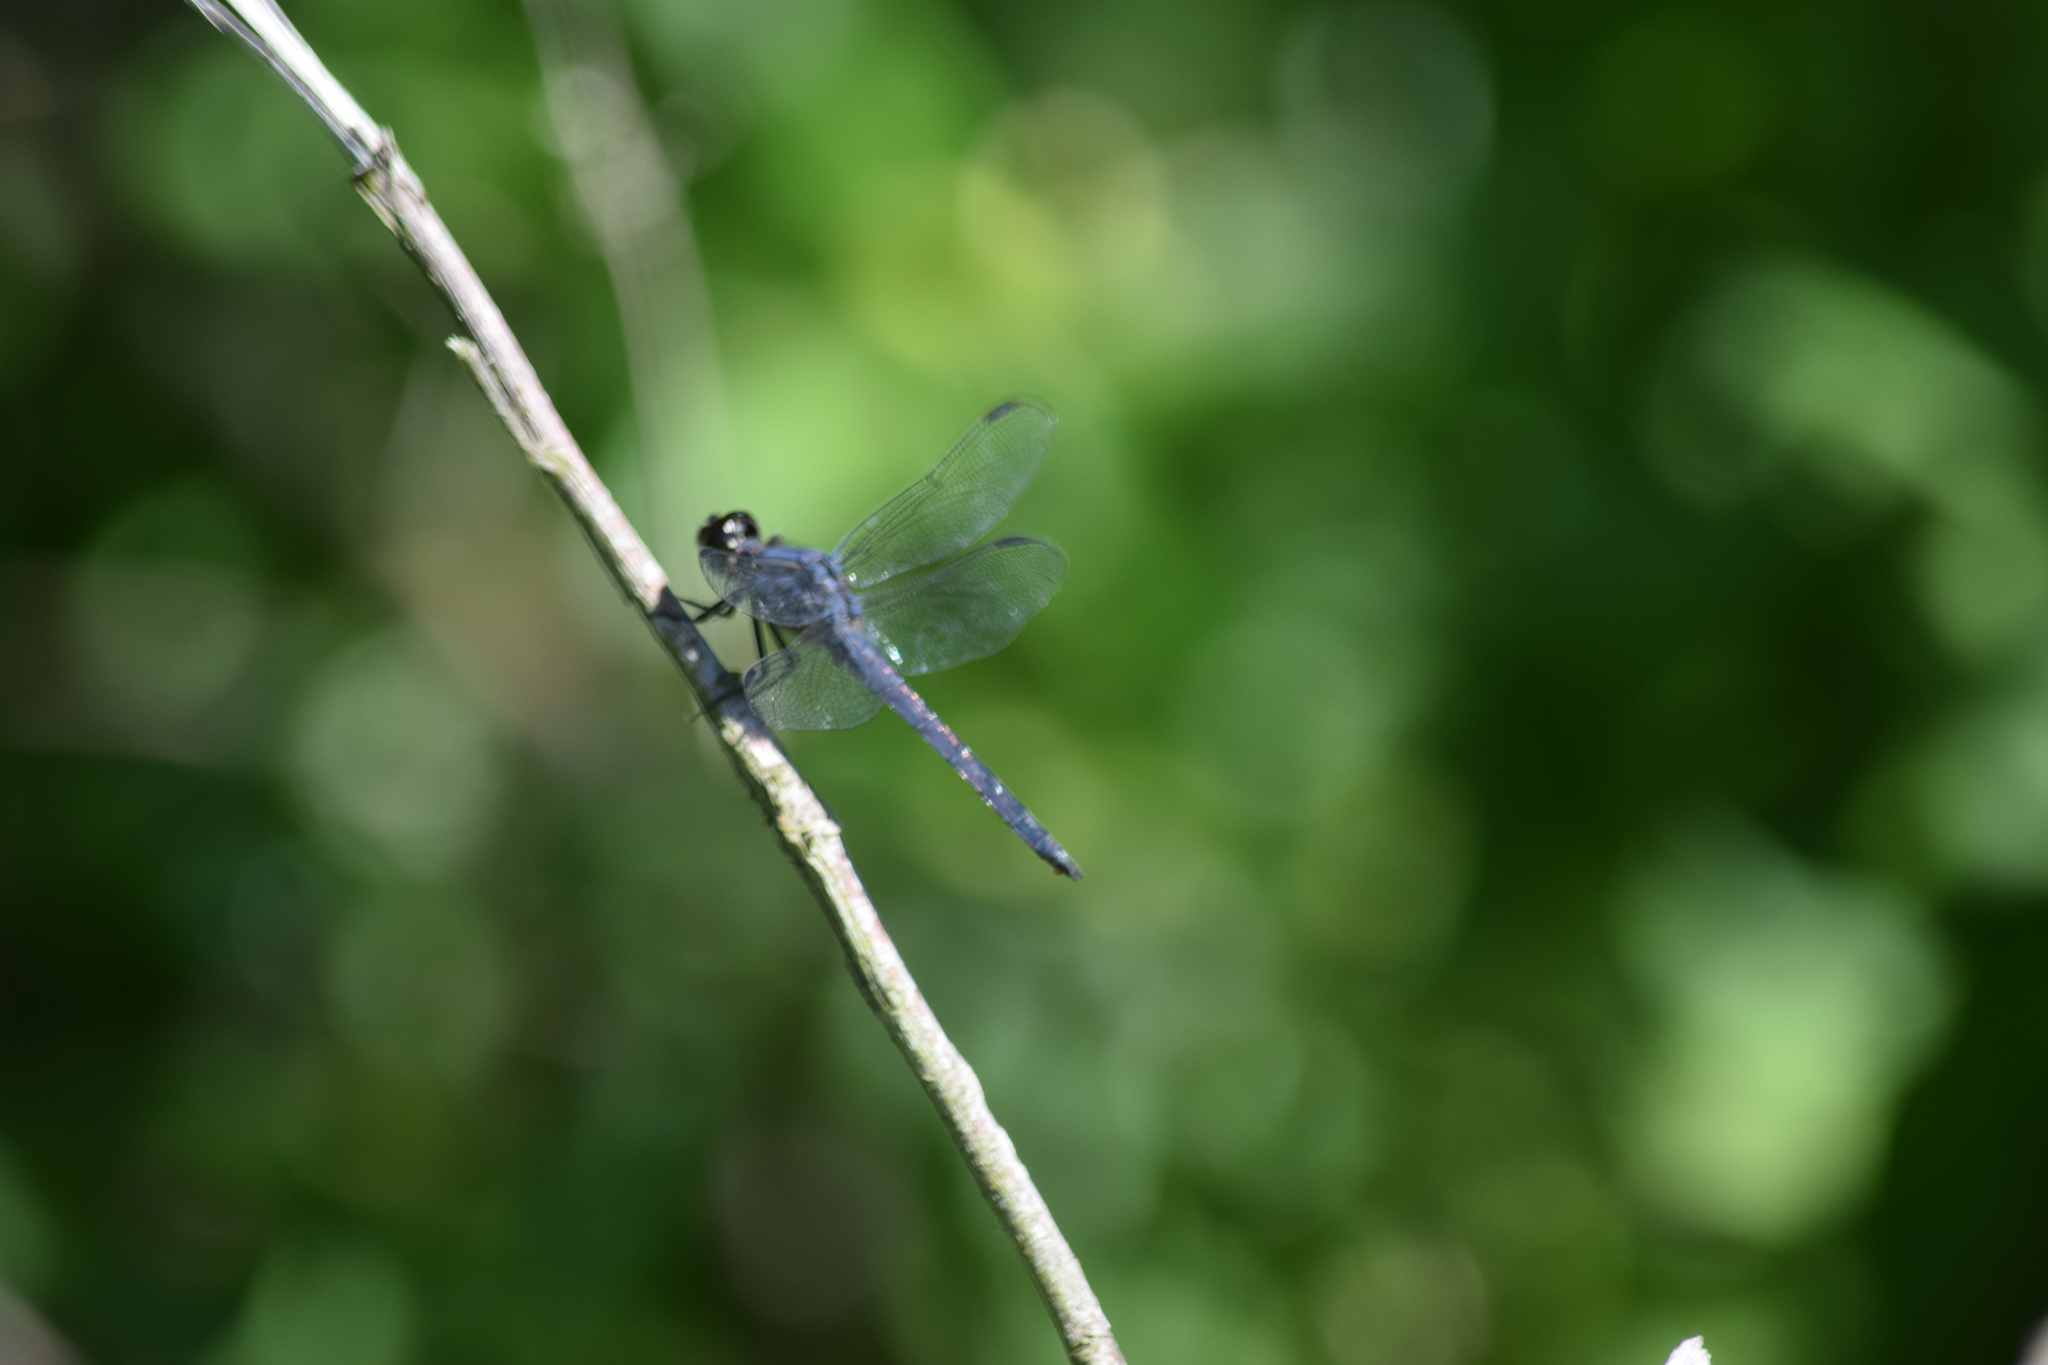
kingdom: Animalia
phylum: Arthropoda
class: Insecta
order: Odonata
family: Libellulidae
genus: Libellula
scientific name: Libellula incesta
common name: Slaty skimmer
